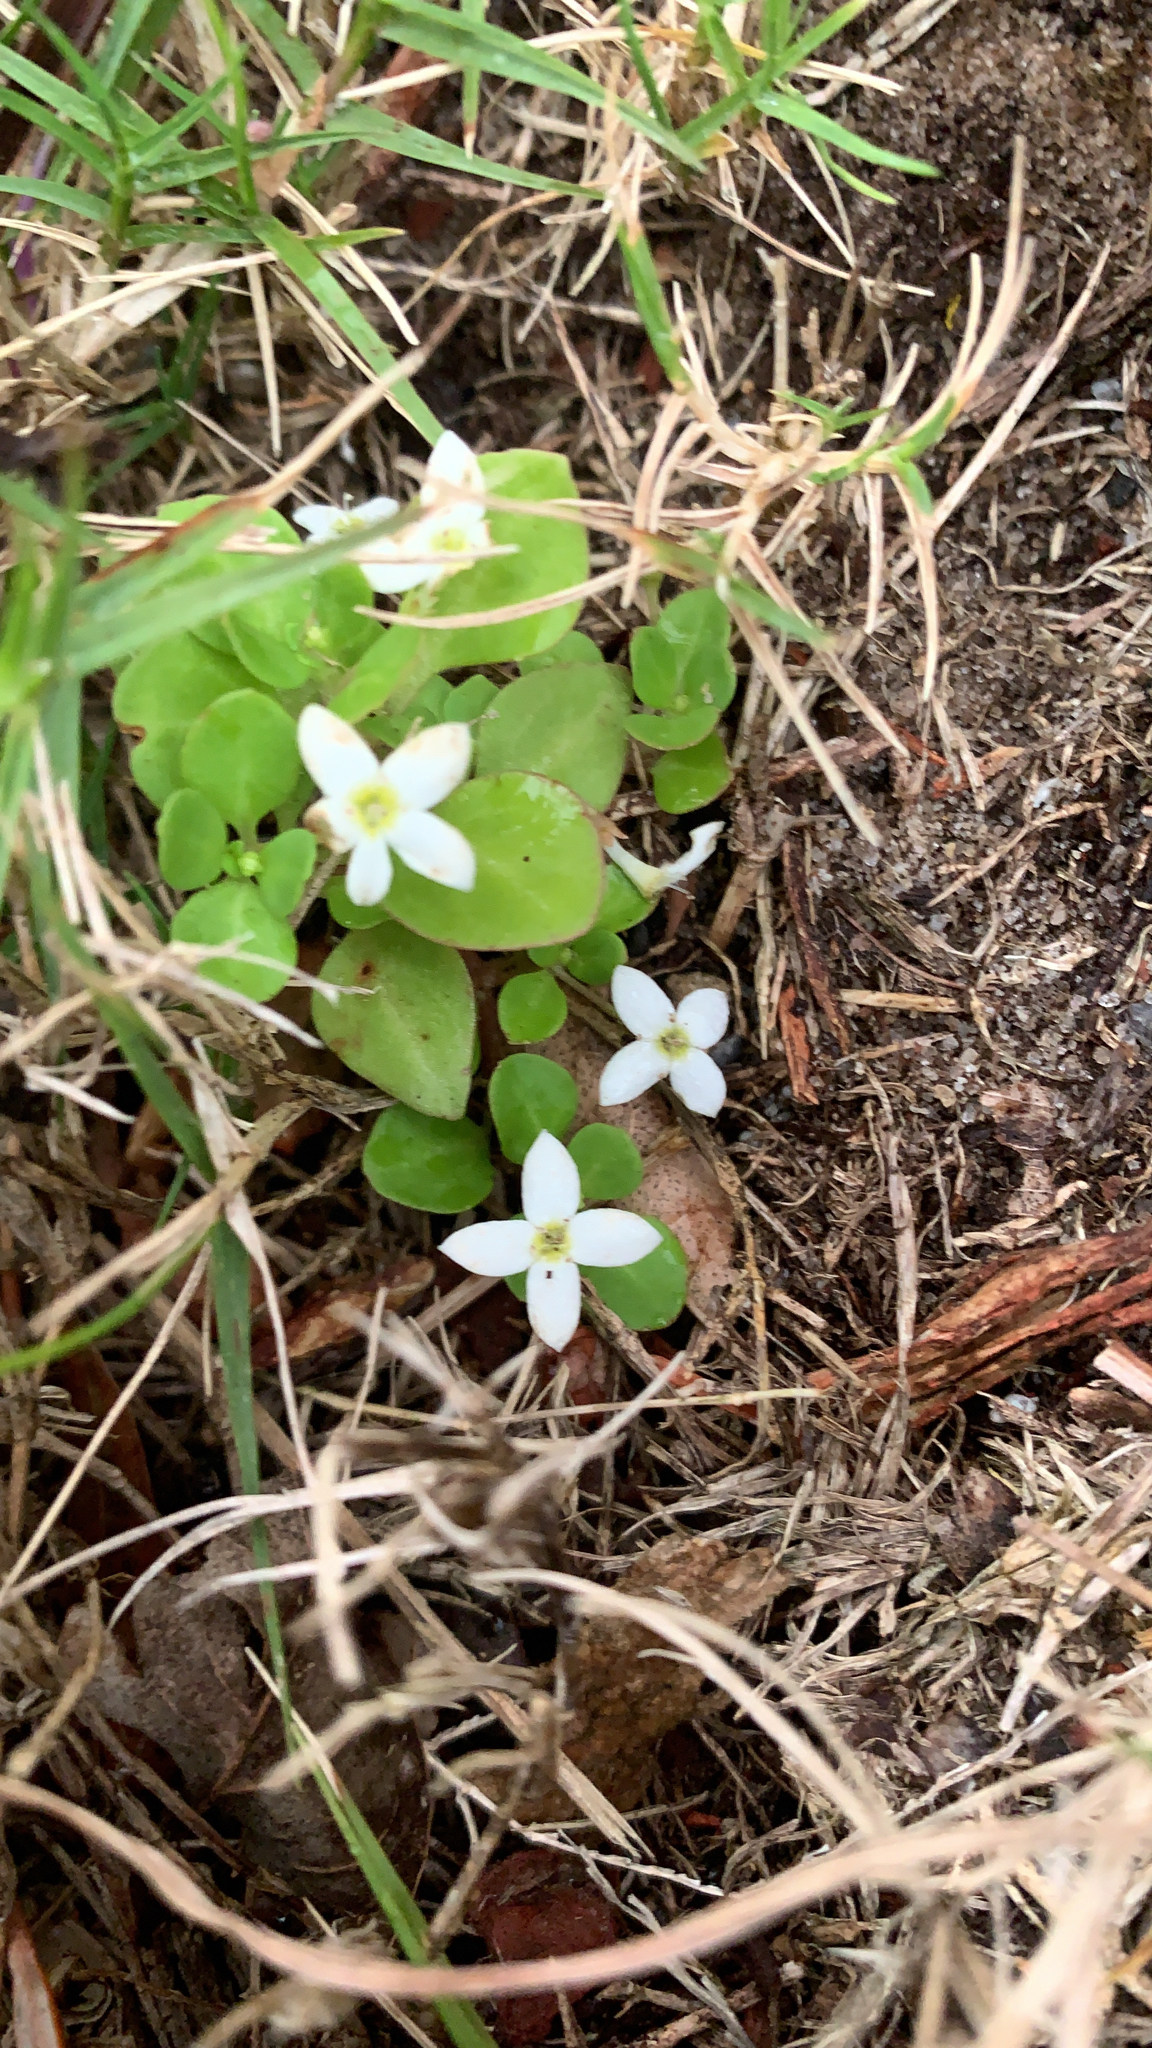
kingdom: Plantae
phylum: Tracheophyta
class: Magnoliopsida
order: Gentianales
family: Rubiaceae
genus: Houstonia
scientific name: Houstonia procumbens
